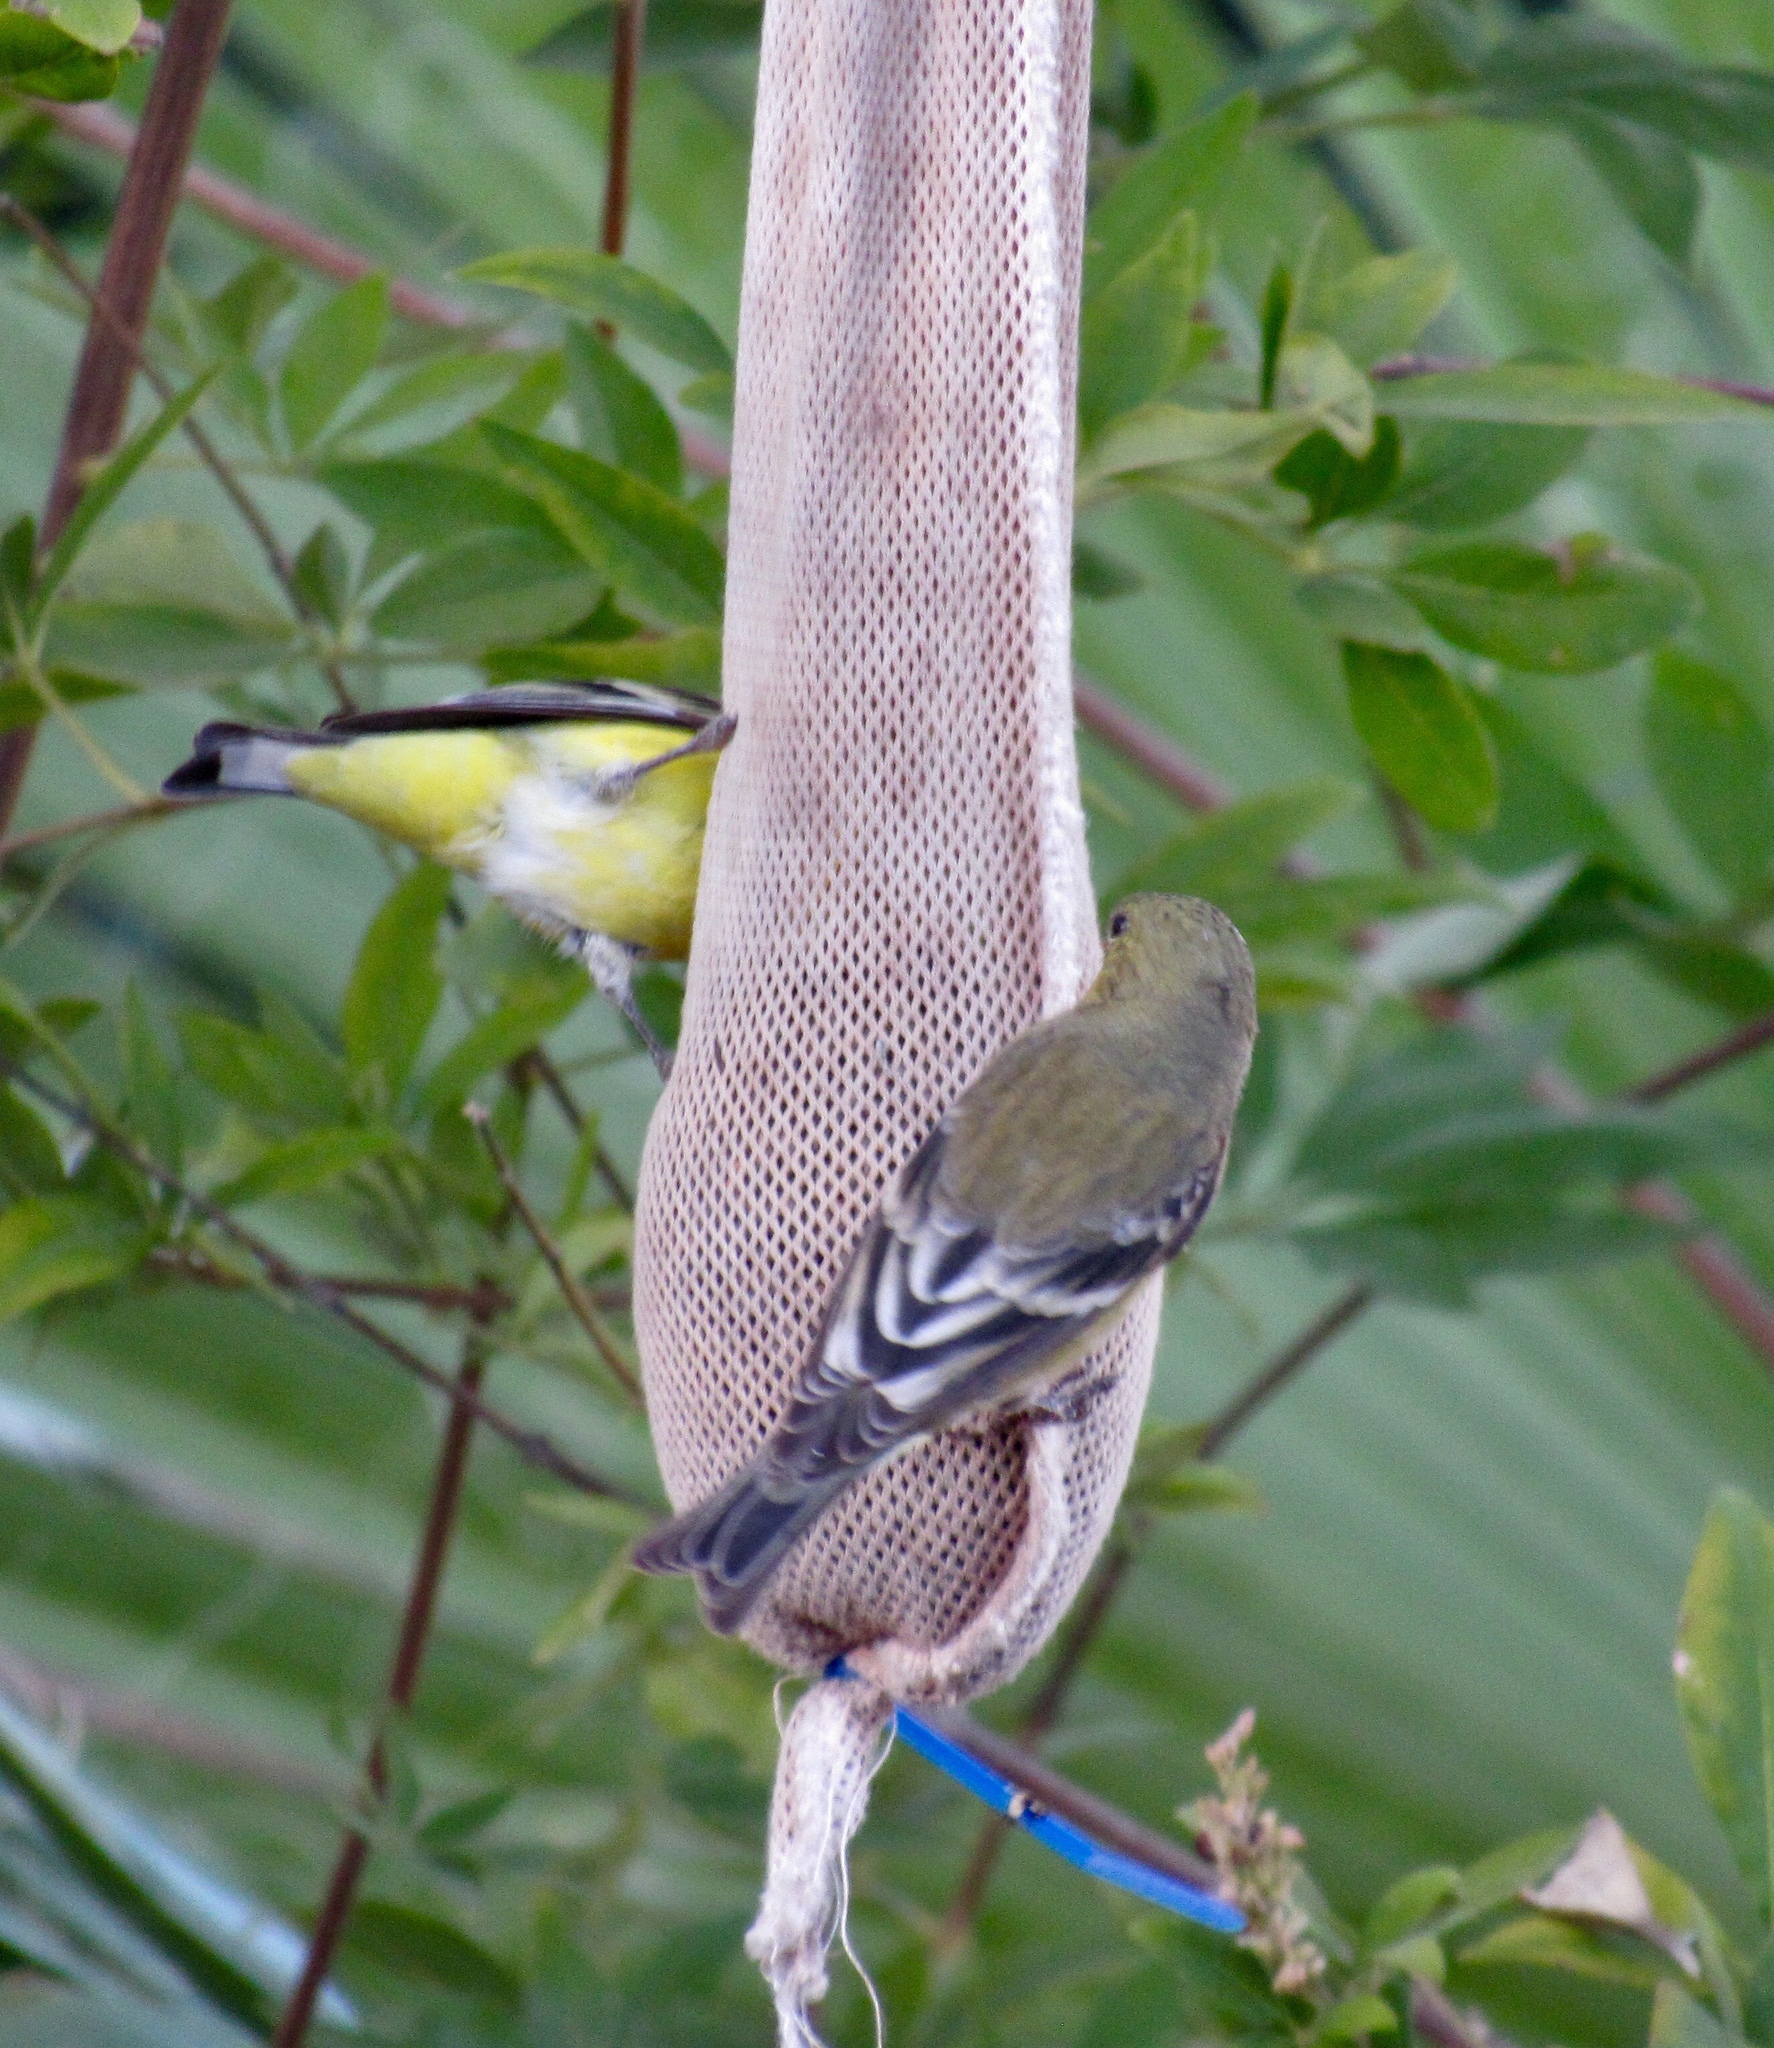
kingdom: Animalia
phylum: Chordata
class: Aves
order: Passeriformes
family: Fringillidae
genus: Spinus
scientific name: Spinus psaltria
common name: Lesser goldfinch
